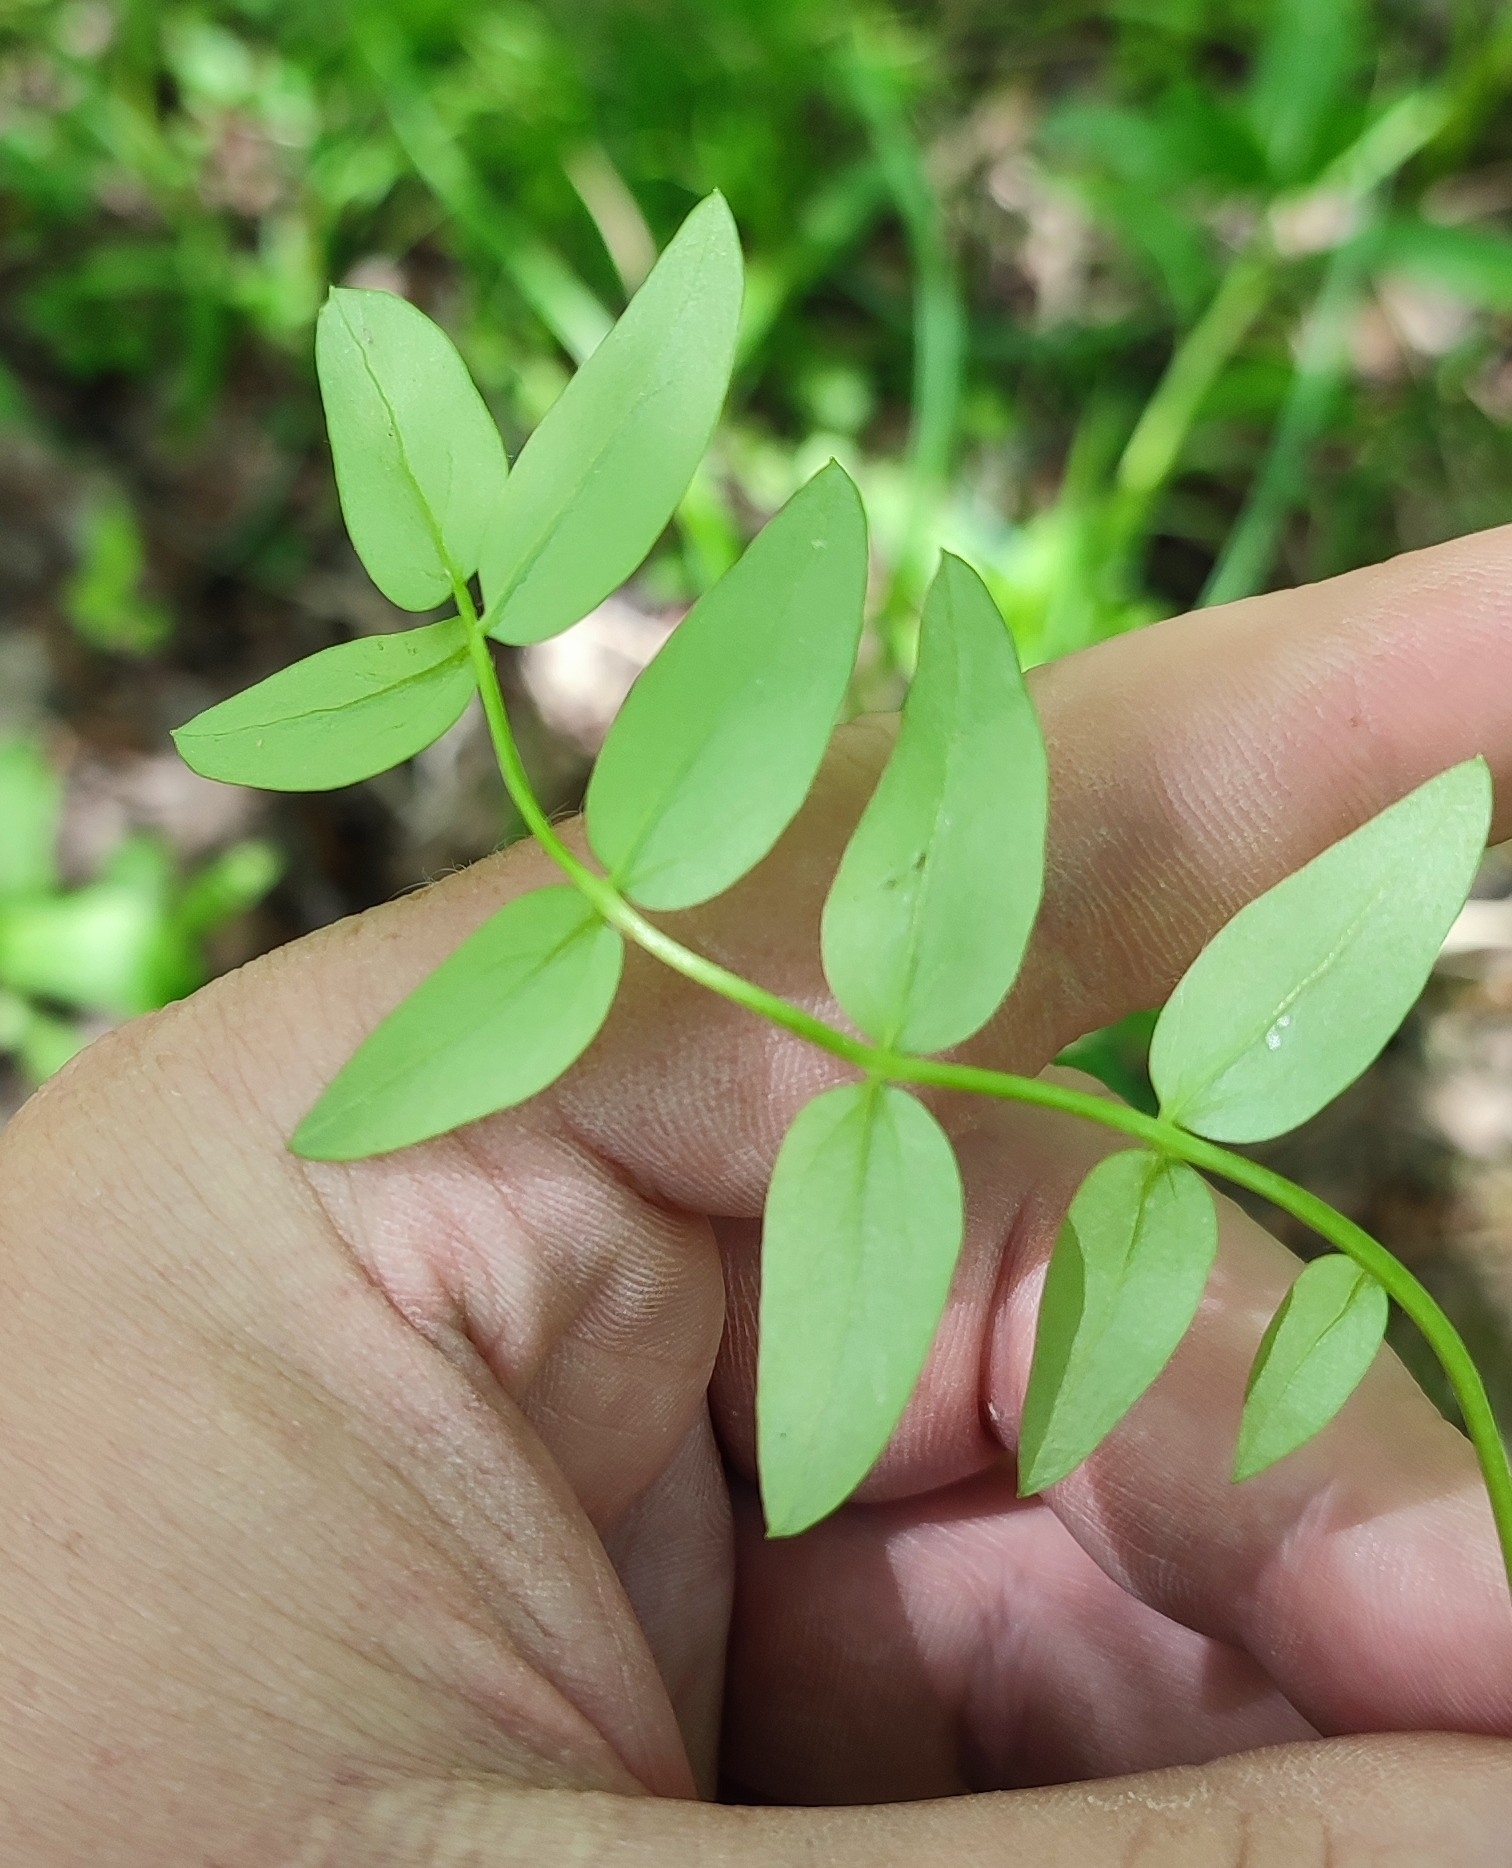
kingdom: Plantae
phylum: Tracheophyta
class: Magnoliopsida
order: Ericales
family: Polemoniaceae
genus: Polemonium
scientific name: Polemonium caeruleum
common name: Jacob's-ladder
